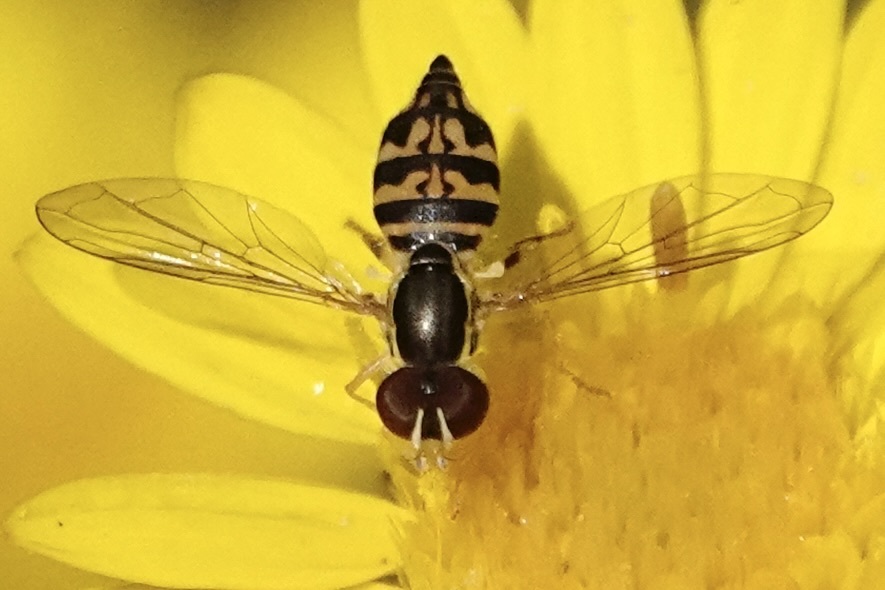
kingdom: Animalia
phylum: Arthropoda
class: Insecta
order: Diptera
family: Syrphidae
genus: Toxomerus
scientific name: Toxomerus geminatus
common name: Eastern calligrapher
